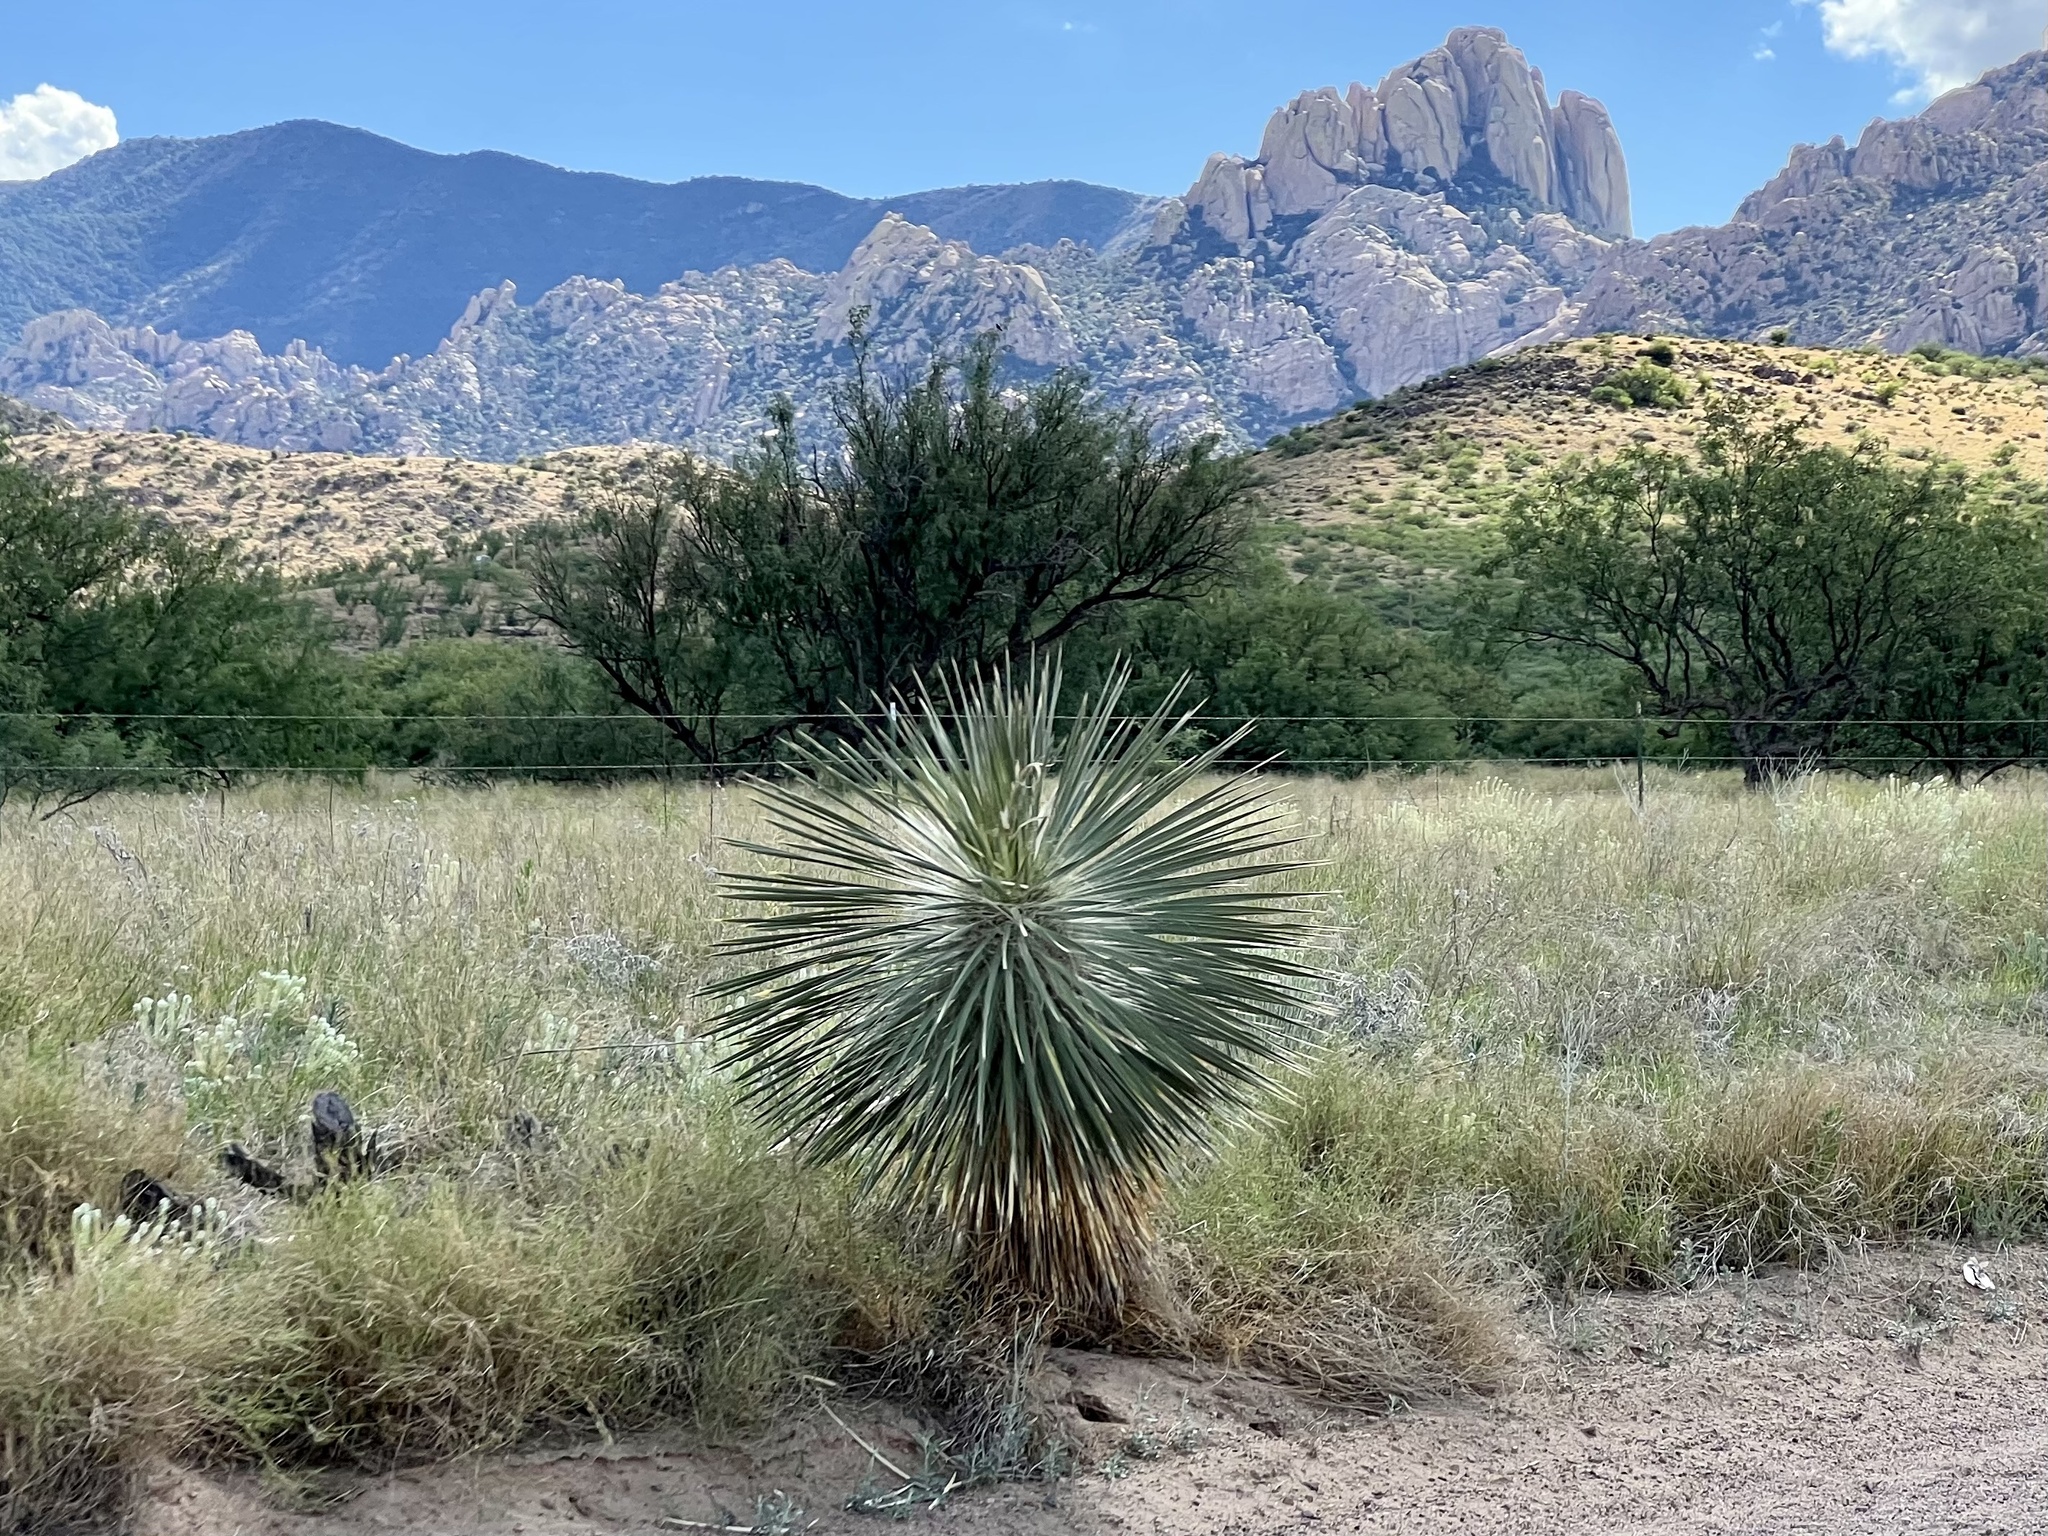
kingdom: Plantae
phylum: Tracheophyta
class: Liliopsida
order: Asparagales
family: Asparagaceae
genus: Yucca
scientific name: Yucca elata
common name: Palmella
